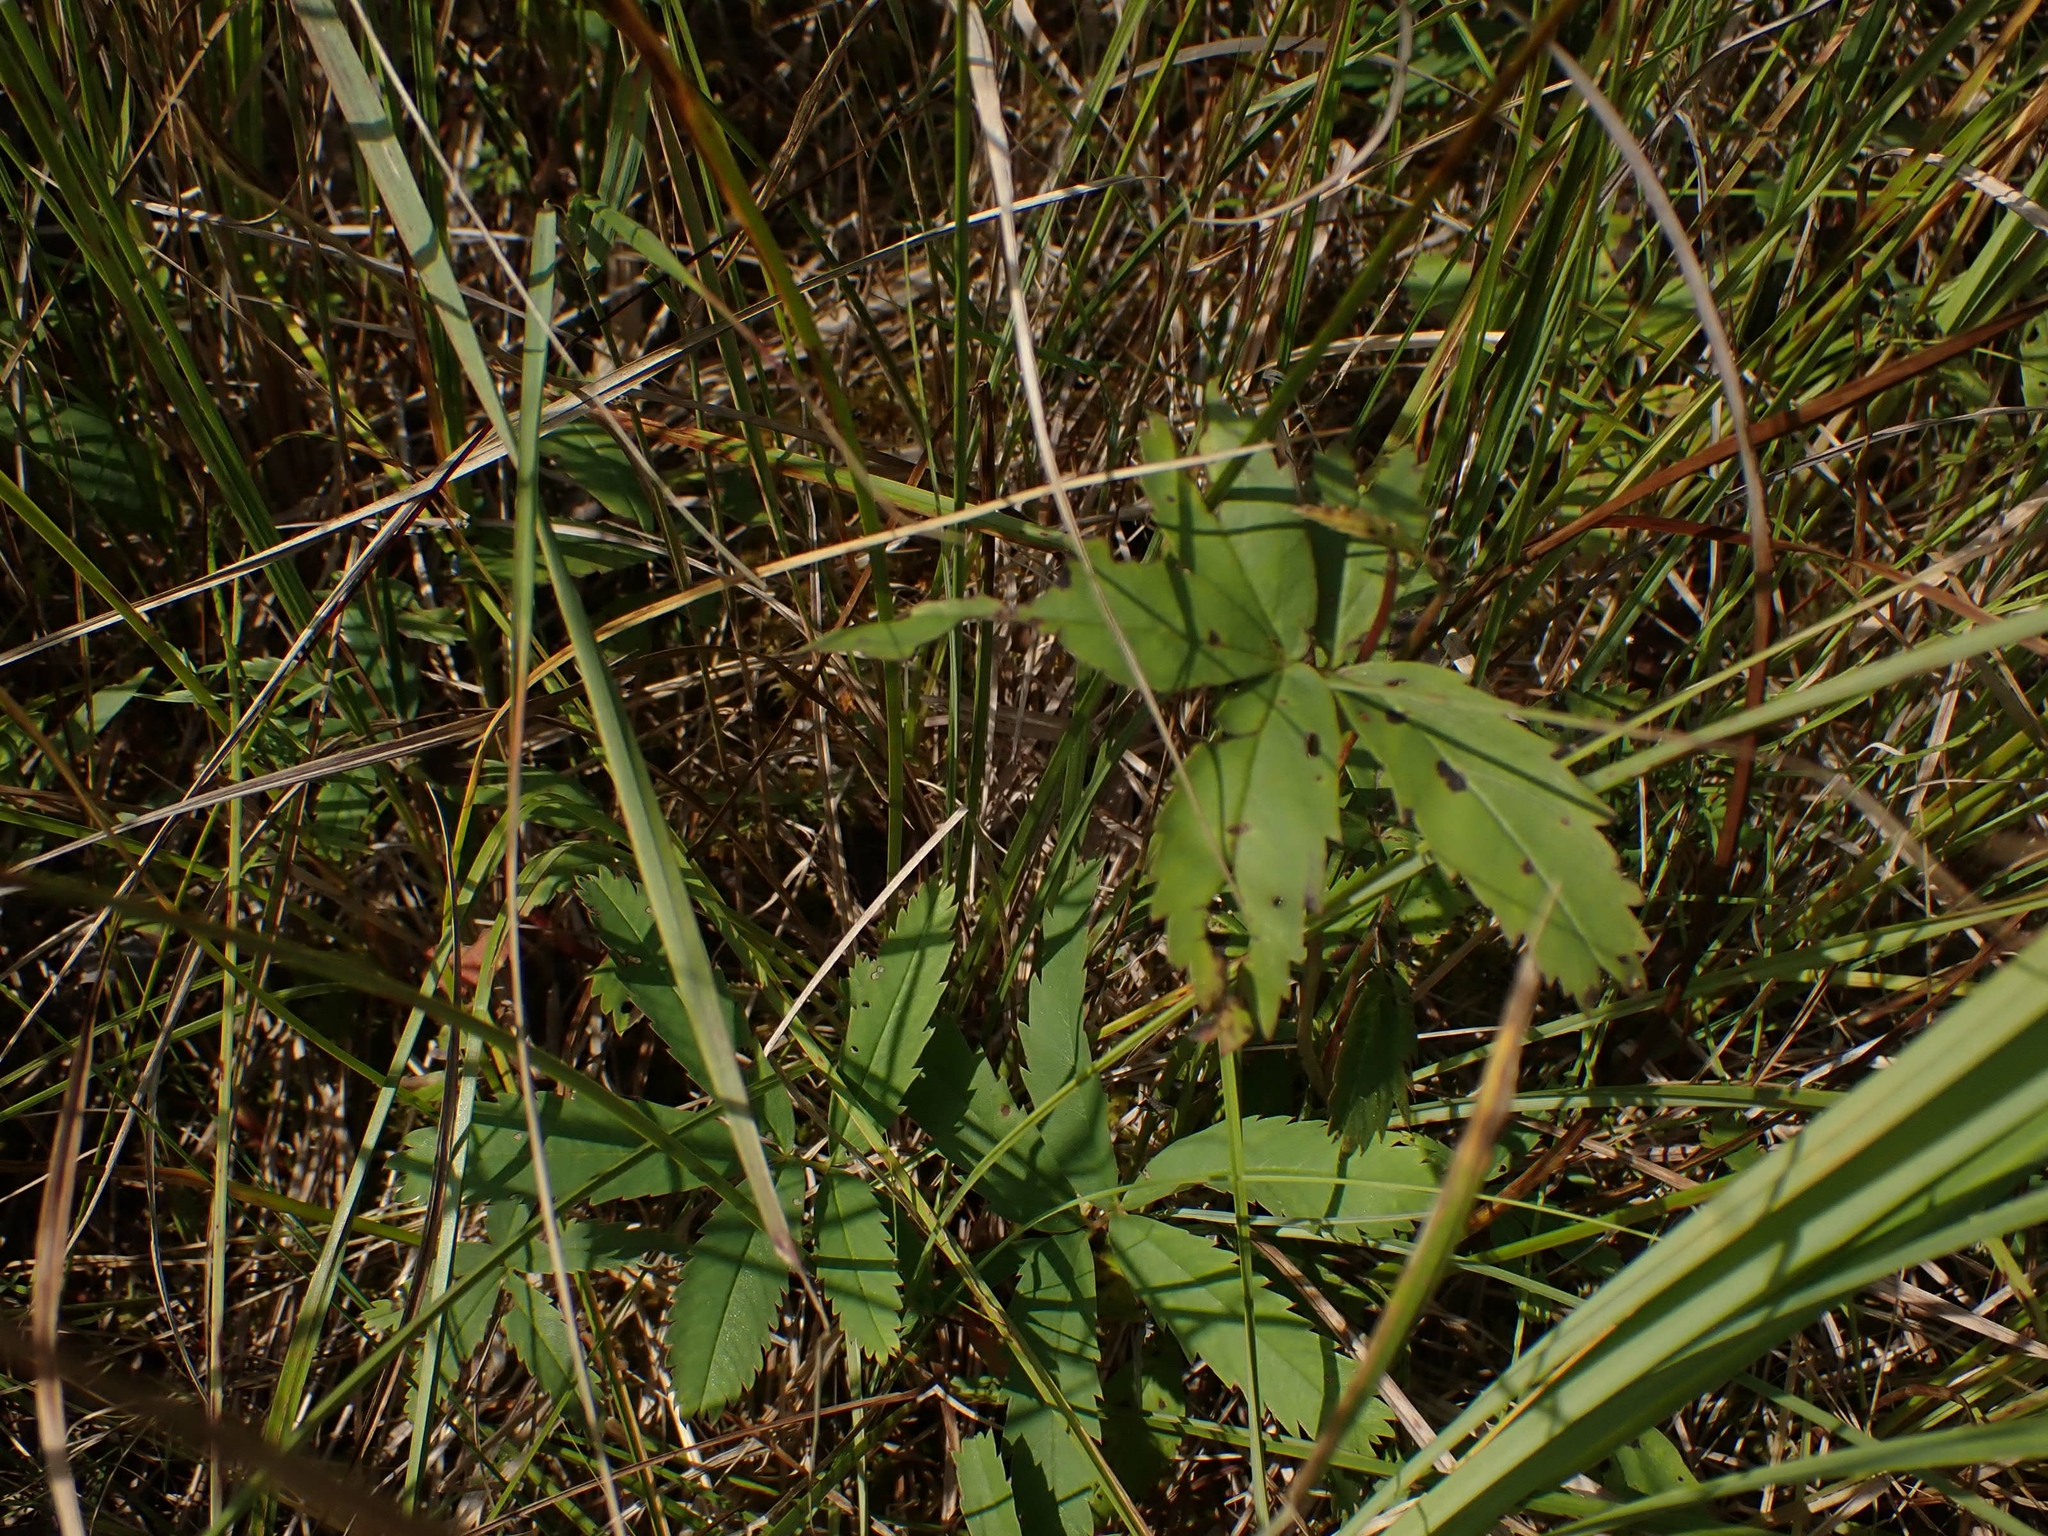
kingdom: Plantae
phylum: Tracheophyta
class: Magnoliopsida
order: Rosales
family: Rosaceae
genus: Comarum
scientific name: Comarum palustre
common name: Marsh cinquefoil
